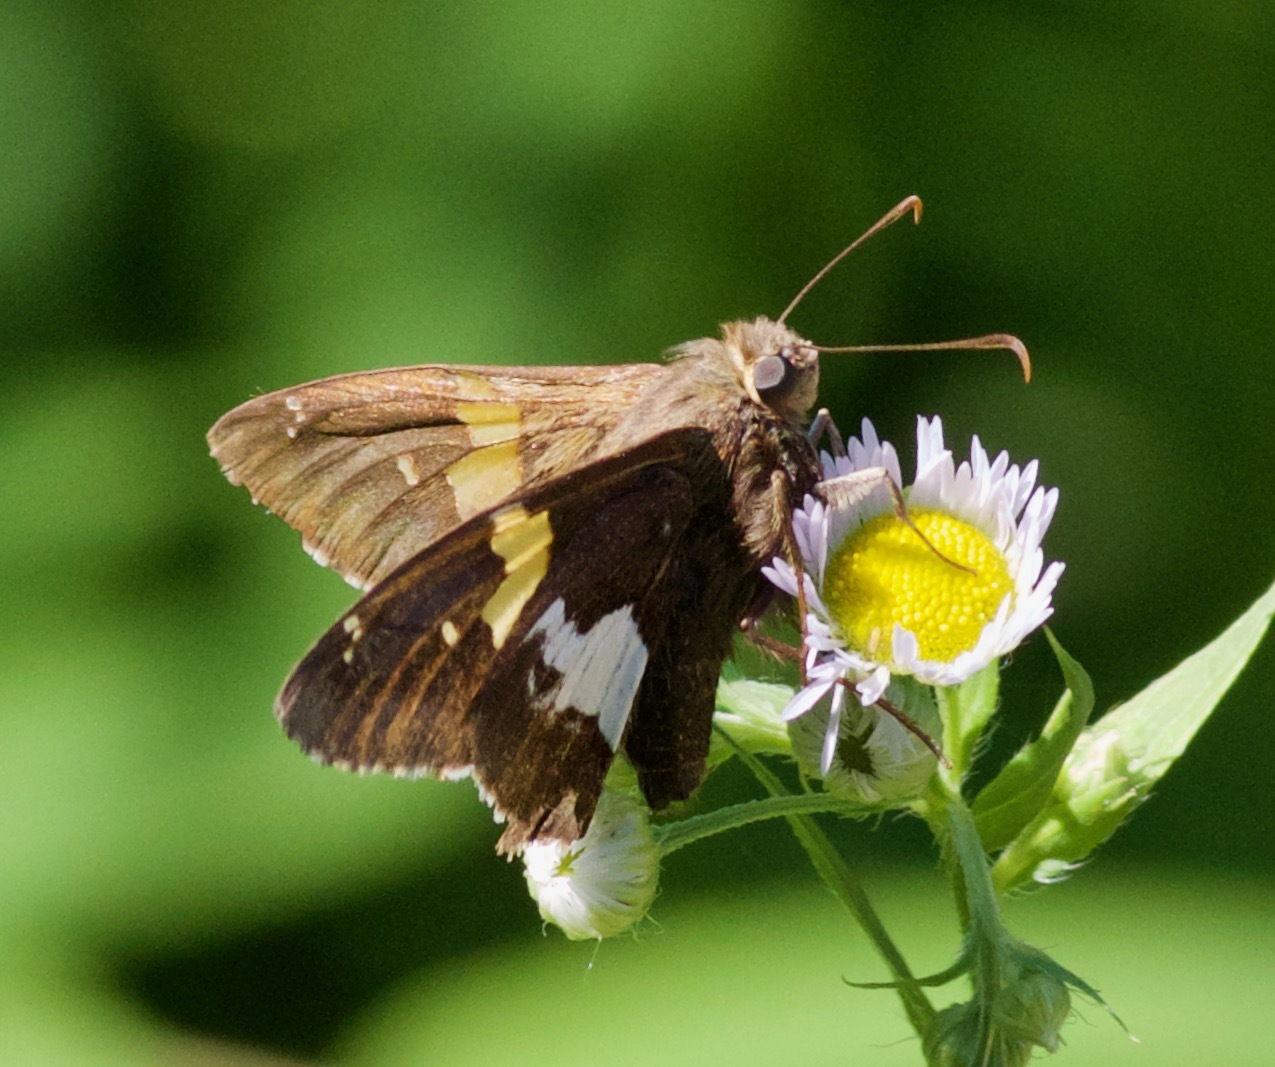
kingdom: Animalia
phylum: Arthropoda
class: Insecta
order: Lepidoptera
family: Hesperiidae
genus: Epargyreus
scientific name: Epargyreus clarus
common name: Silver-spotted skipper
